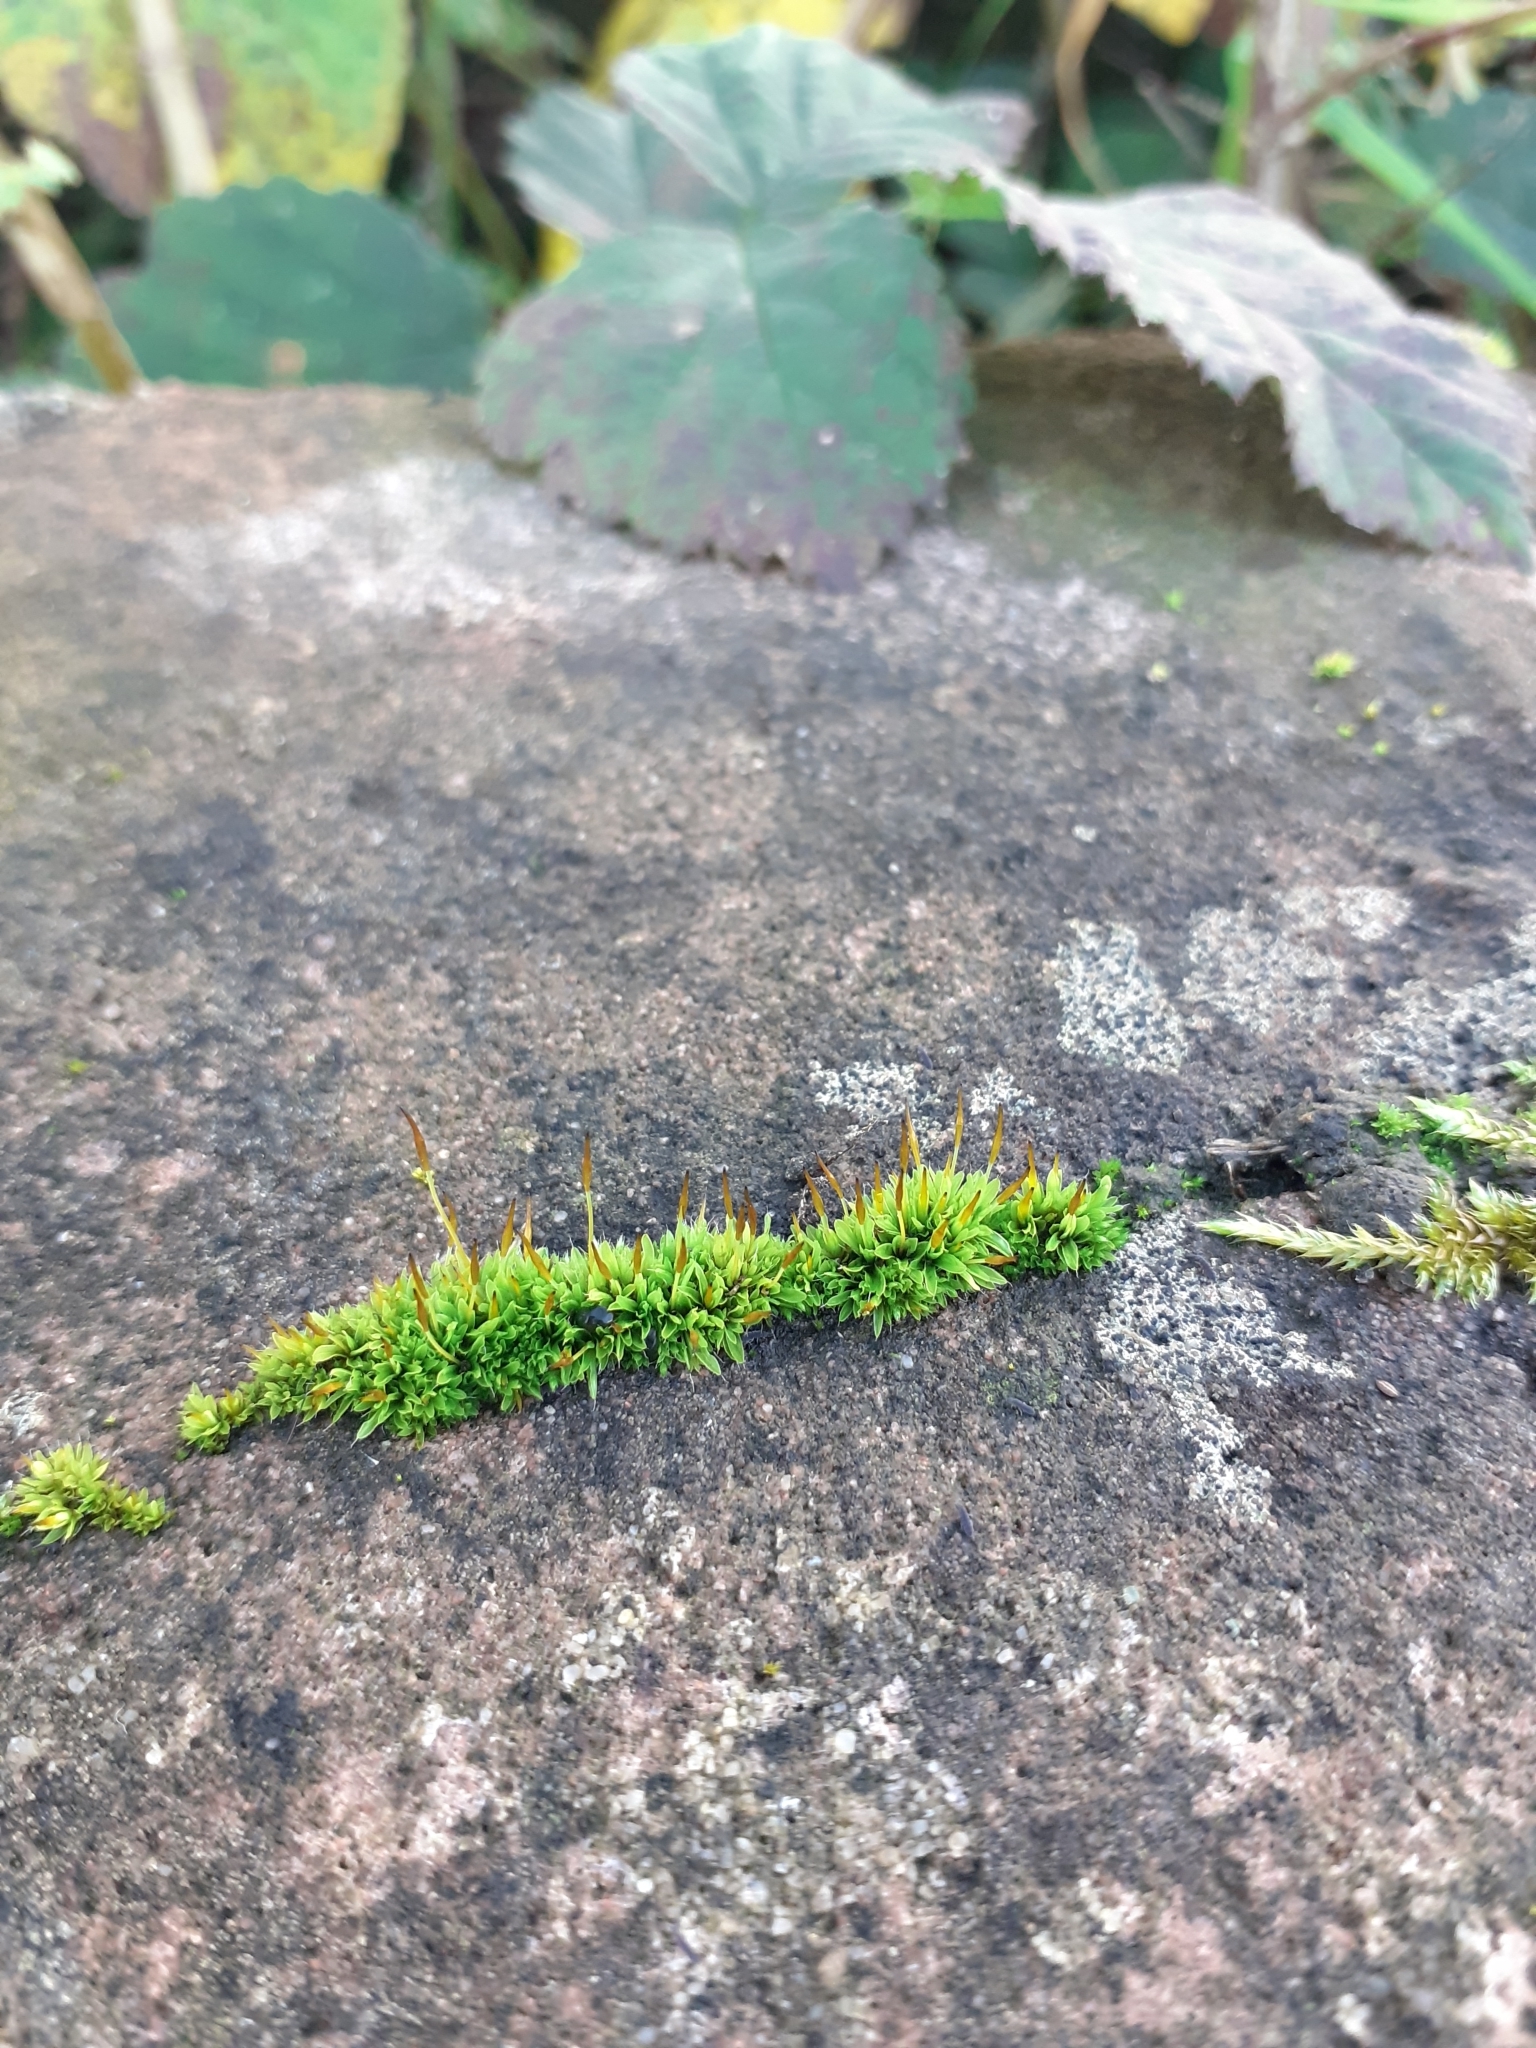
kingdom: Plantae
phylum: Bryophyta
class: Bryopsida
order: Pottiales
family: Pottiaceae
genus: Tortula
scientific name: Tortula muralis
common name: Wall screw-moss
